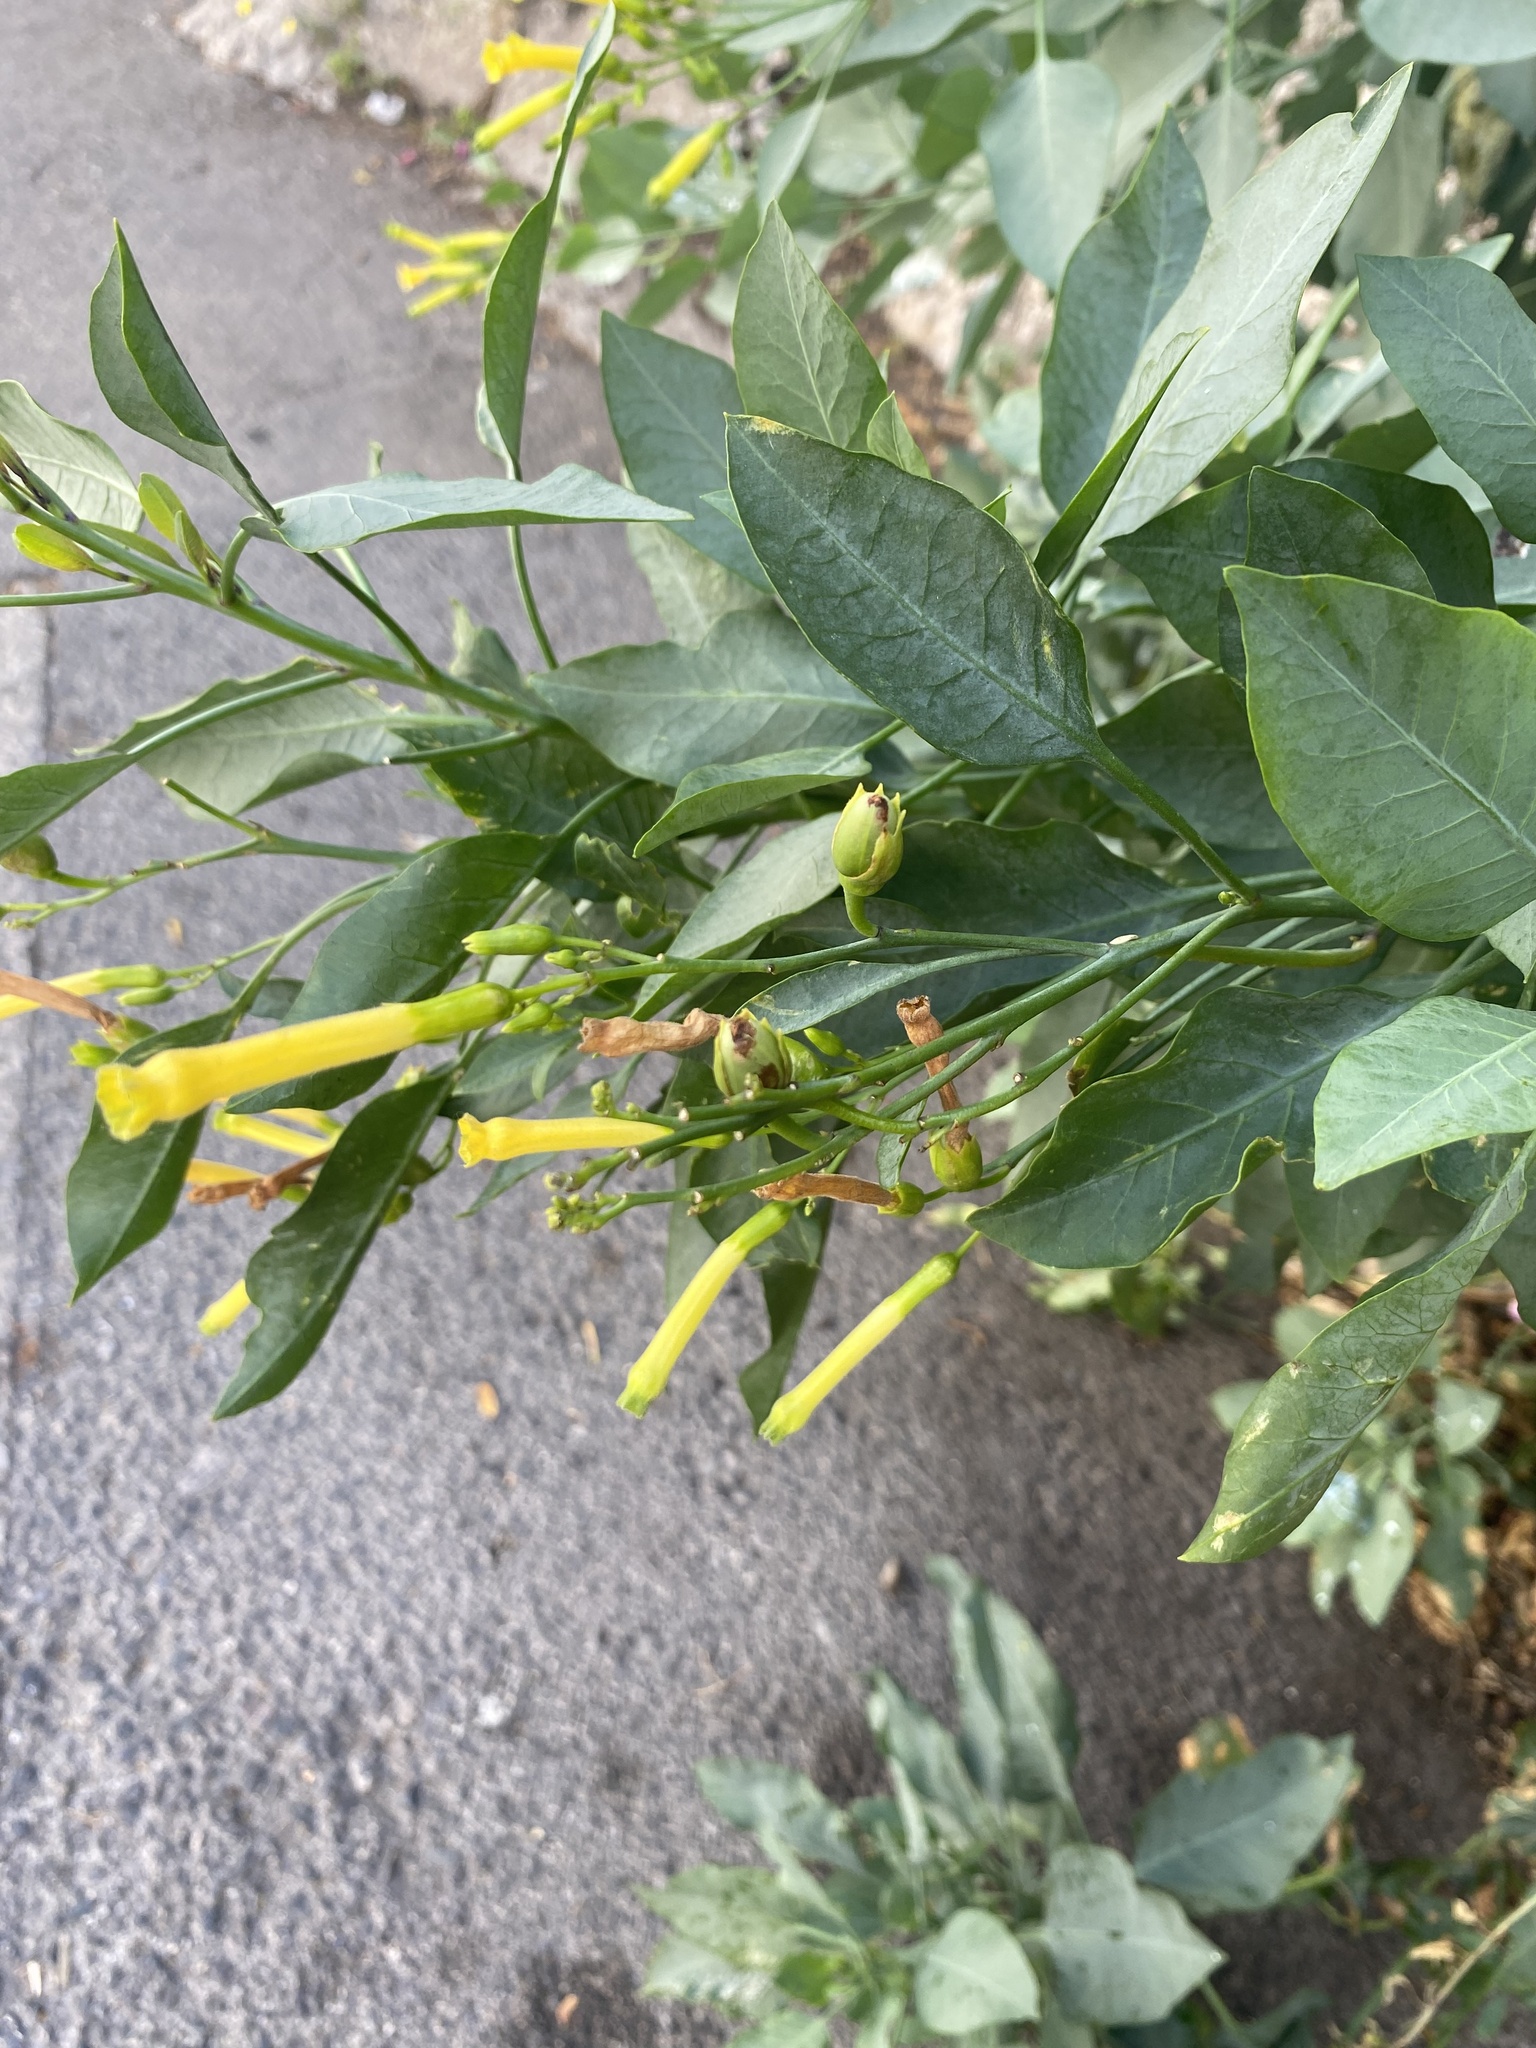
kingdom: Plantae
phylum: Tracheophyta
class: Magnoliopsida
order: Solanales
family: Solanaceae
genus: Nicotiana
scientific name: Nicotiana glauca
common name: Tree tobacco
